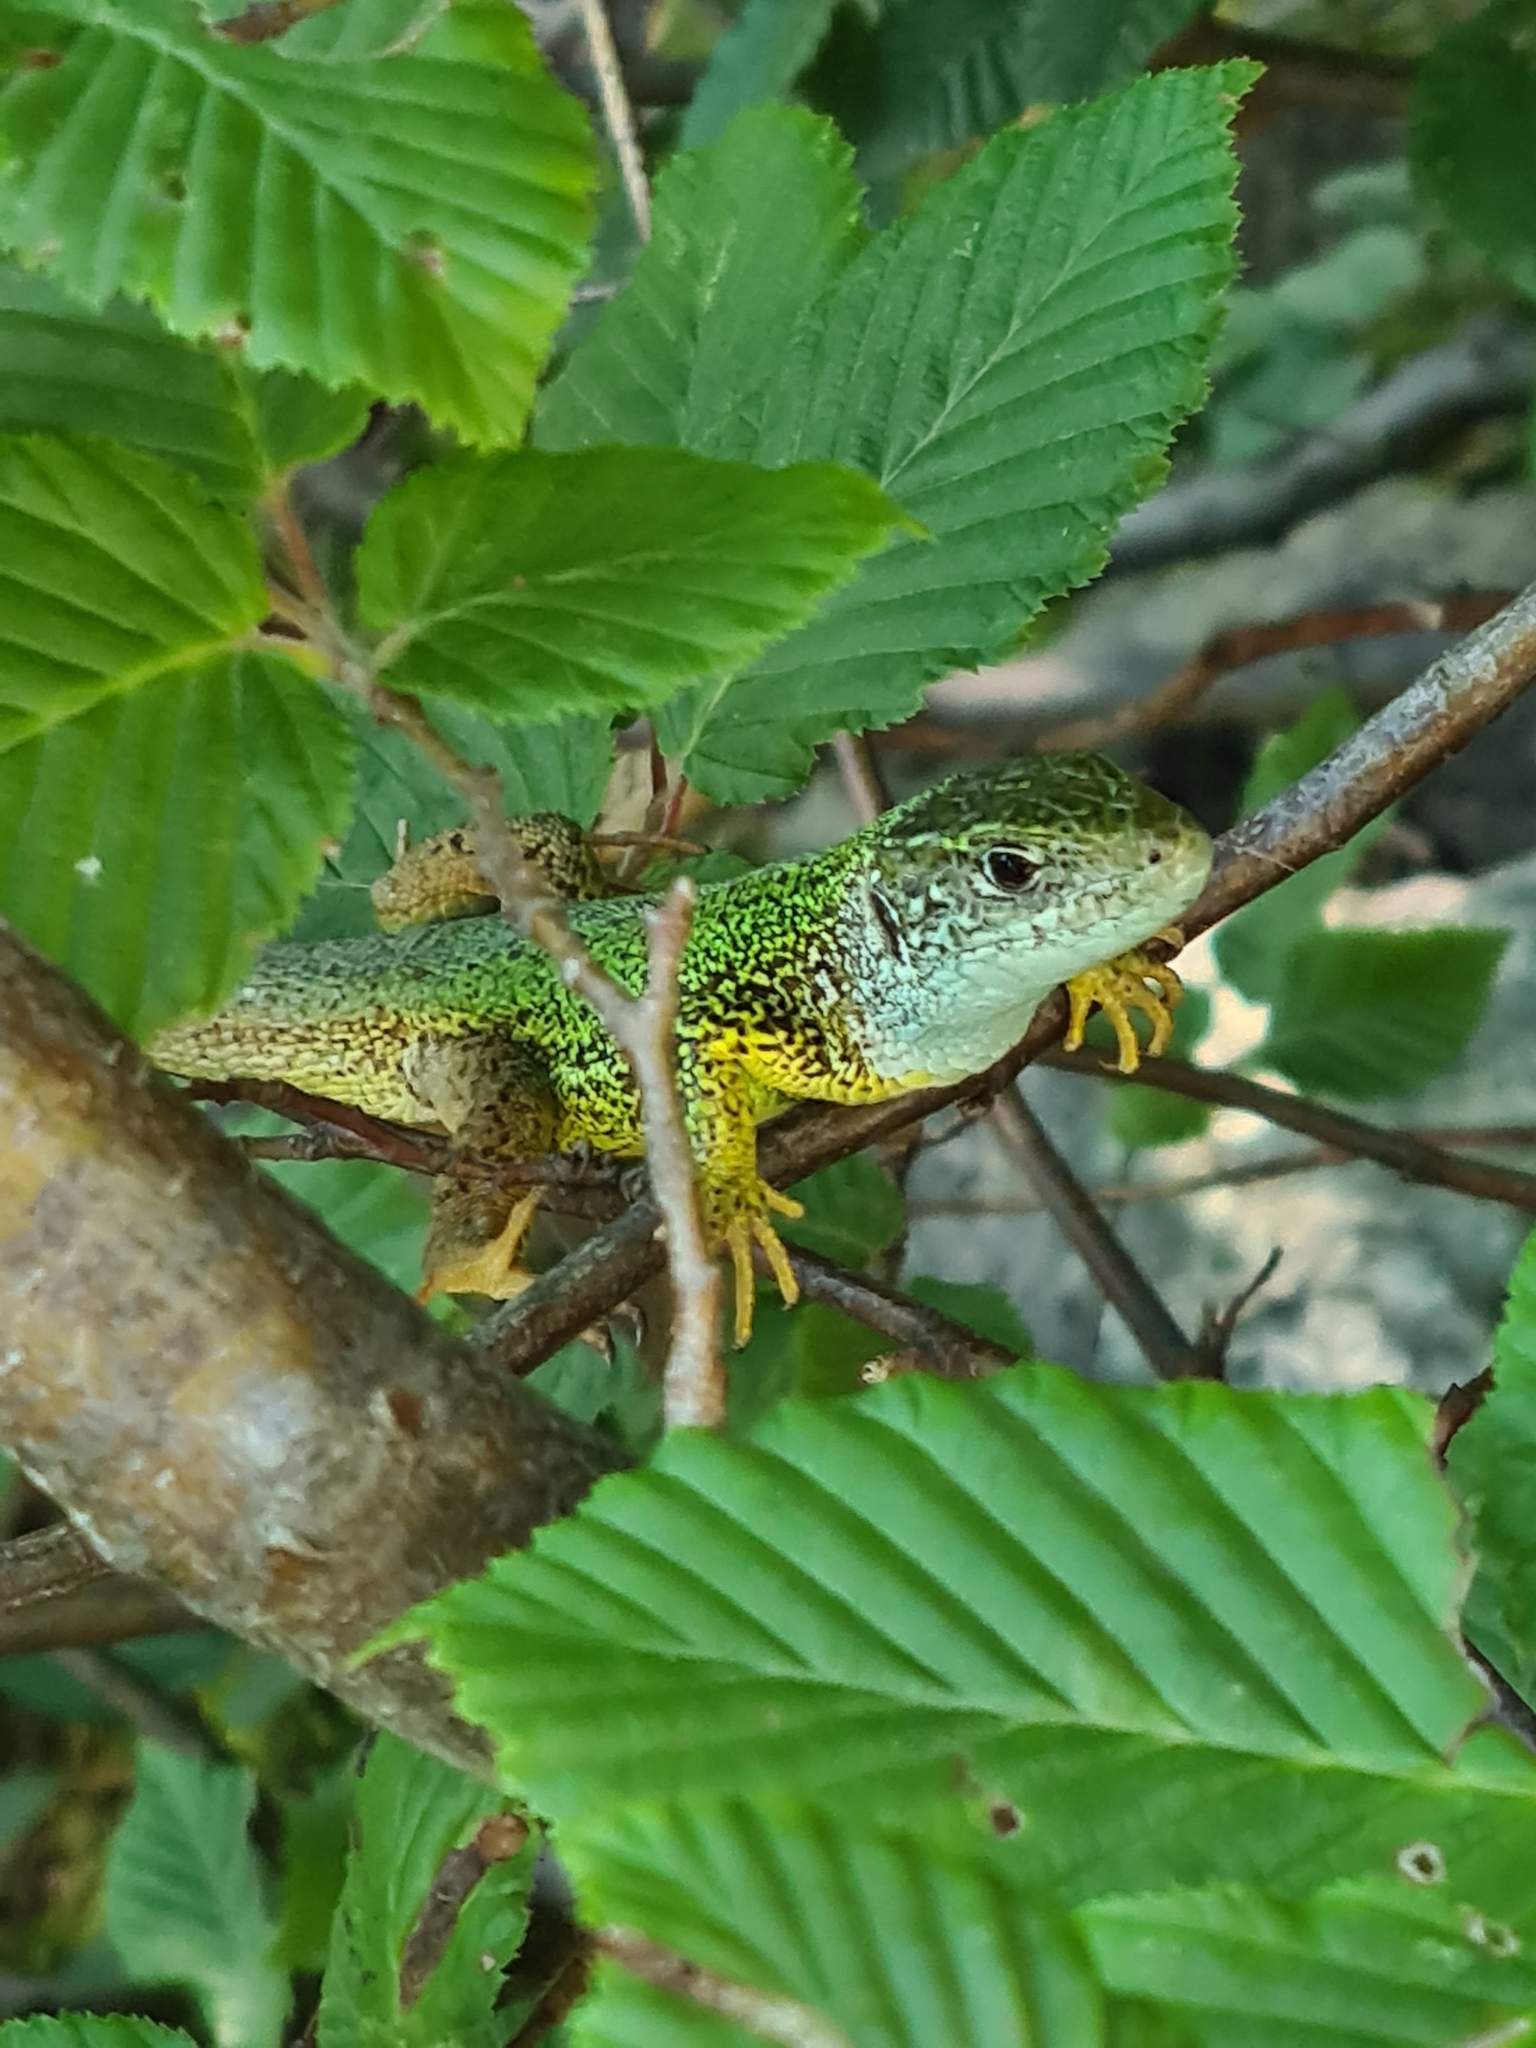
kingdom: Animalia
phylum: Chordata
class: Squamata
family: Lacertidae
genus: Lacerta
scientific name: Lacerta viridis
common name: European green lizard
